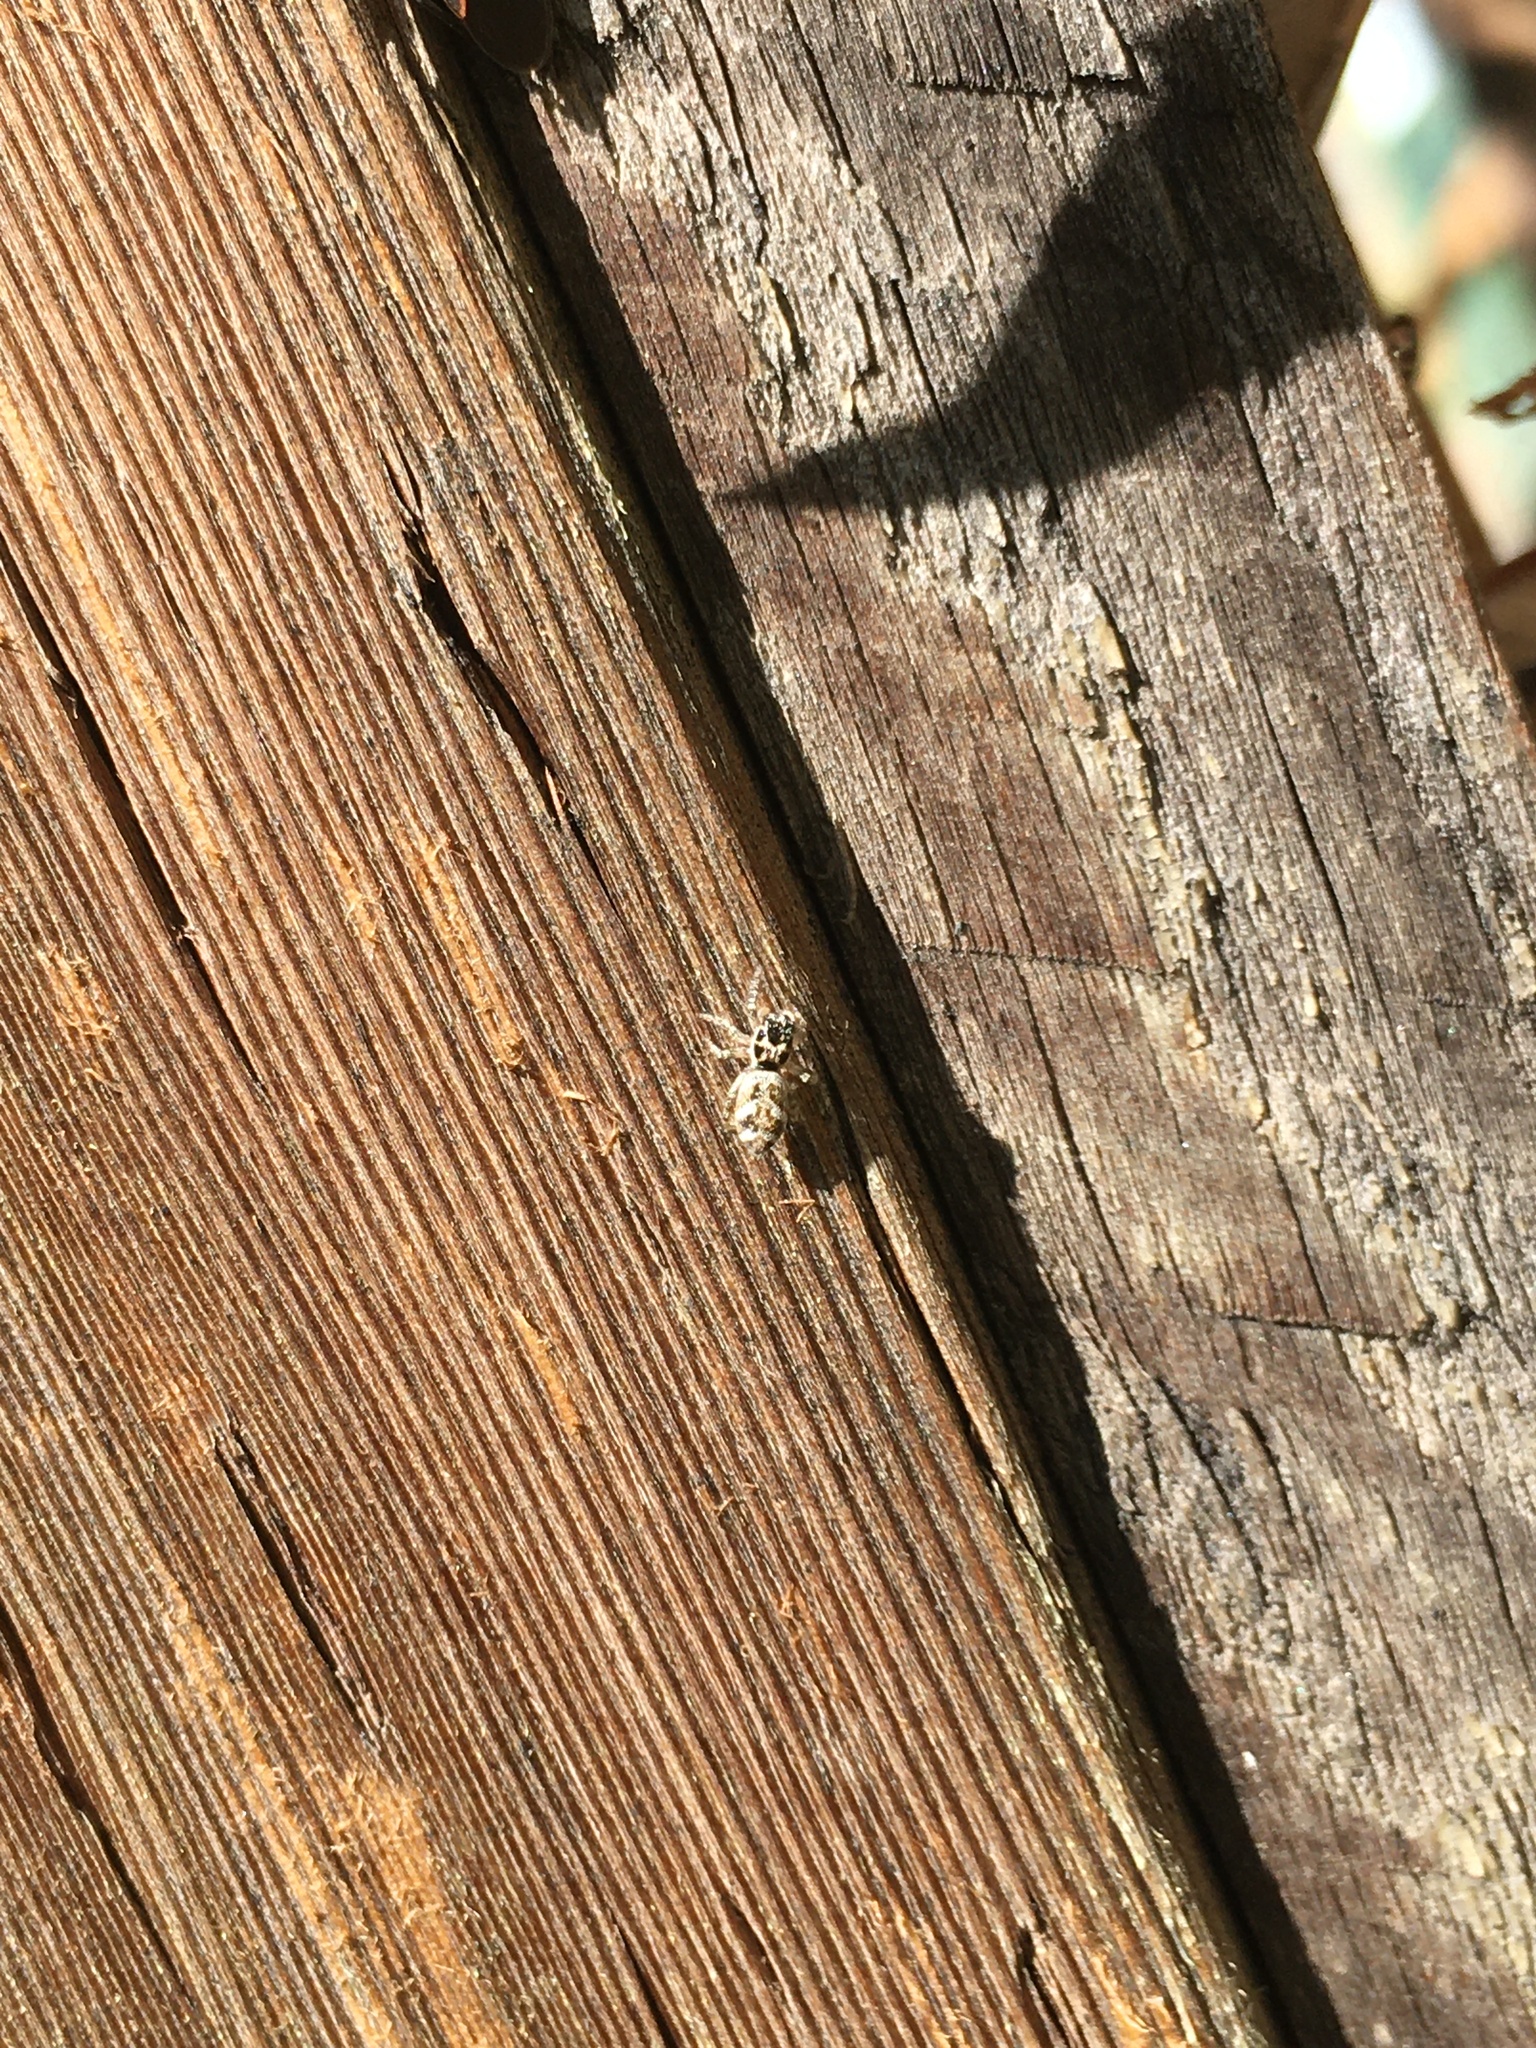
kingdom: Animalia
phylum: Arthropoda
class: Arachnida
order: Araneae
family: Salticidae
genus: Salticus
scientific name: Salticus scenicus
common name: Zebra jumper
